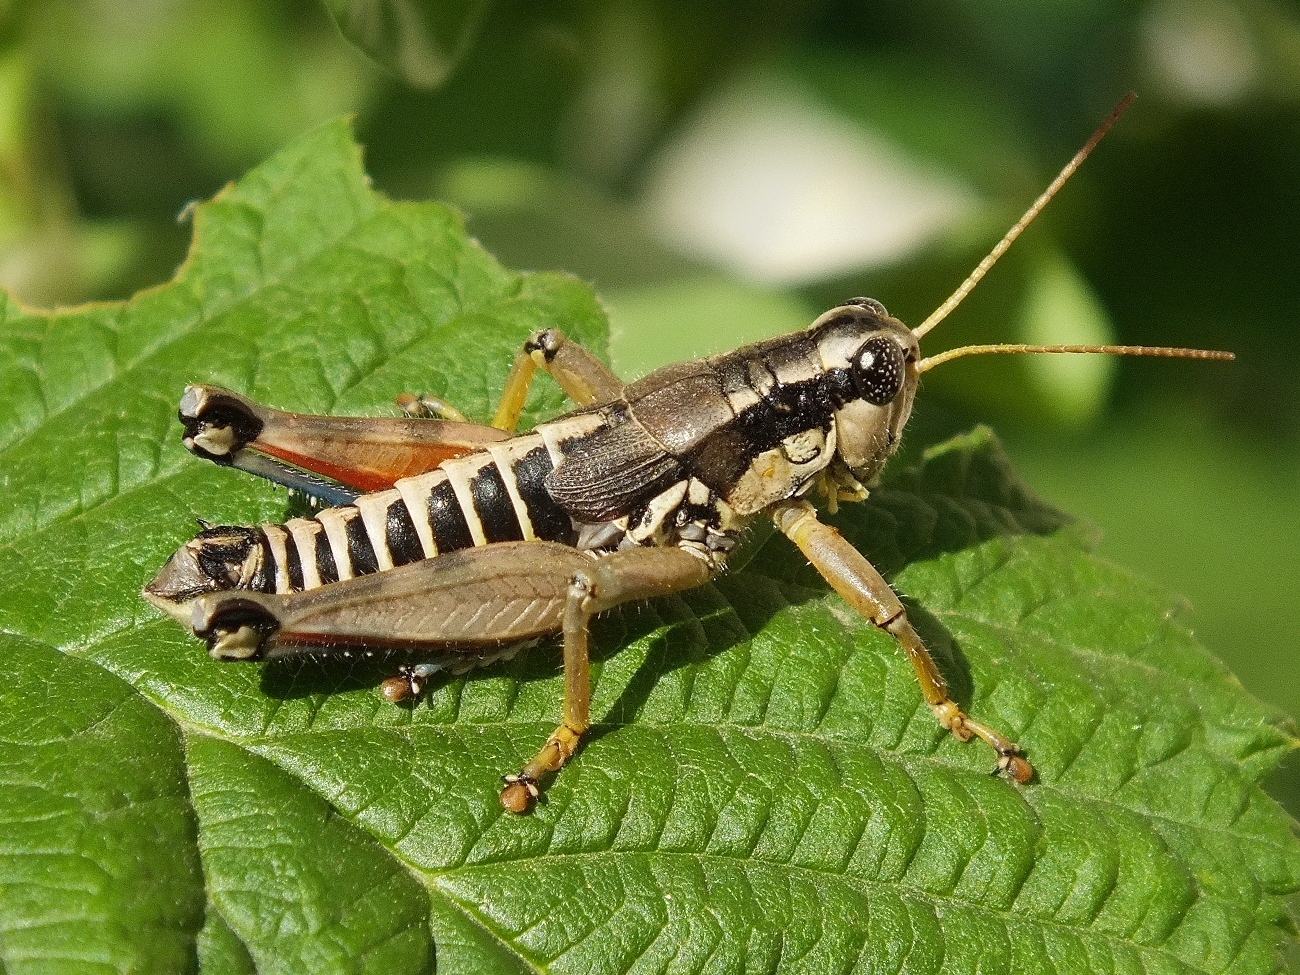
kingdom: Animalia
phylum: Arthropoda
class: Insecta
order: Orthoptera
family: Acrididae
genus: Podisma
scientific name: Podisma pedestris
